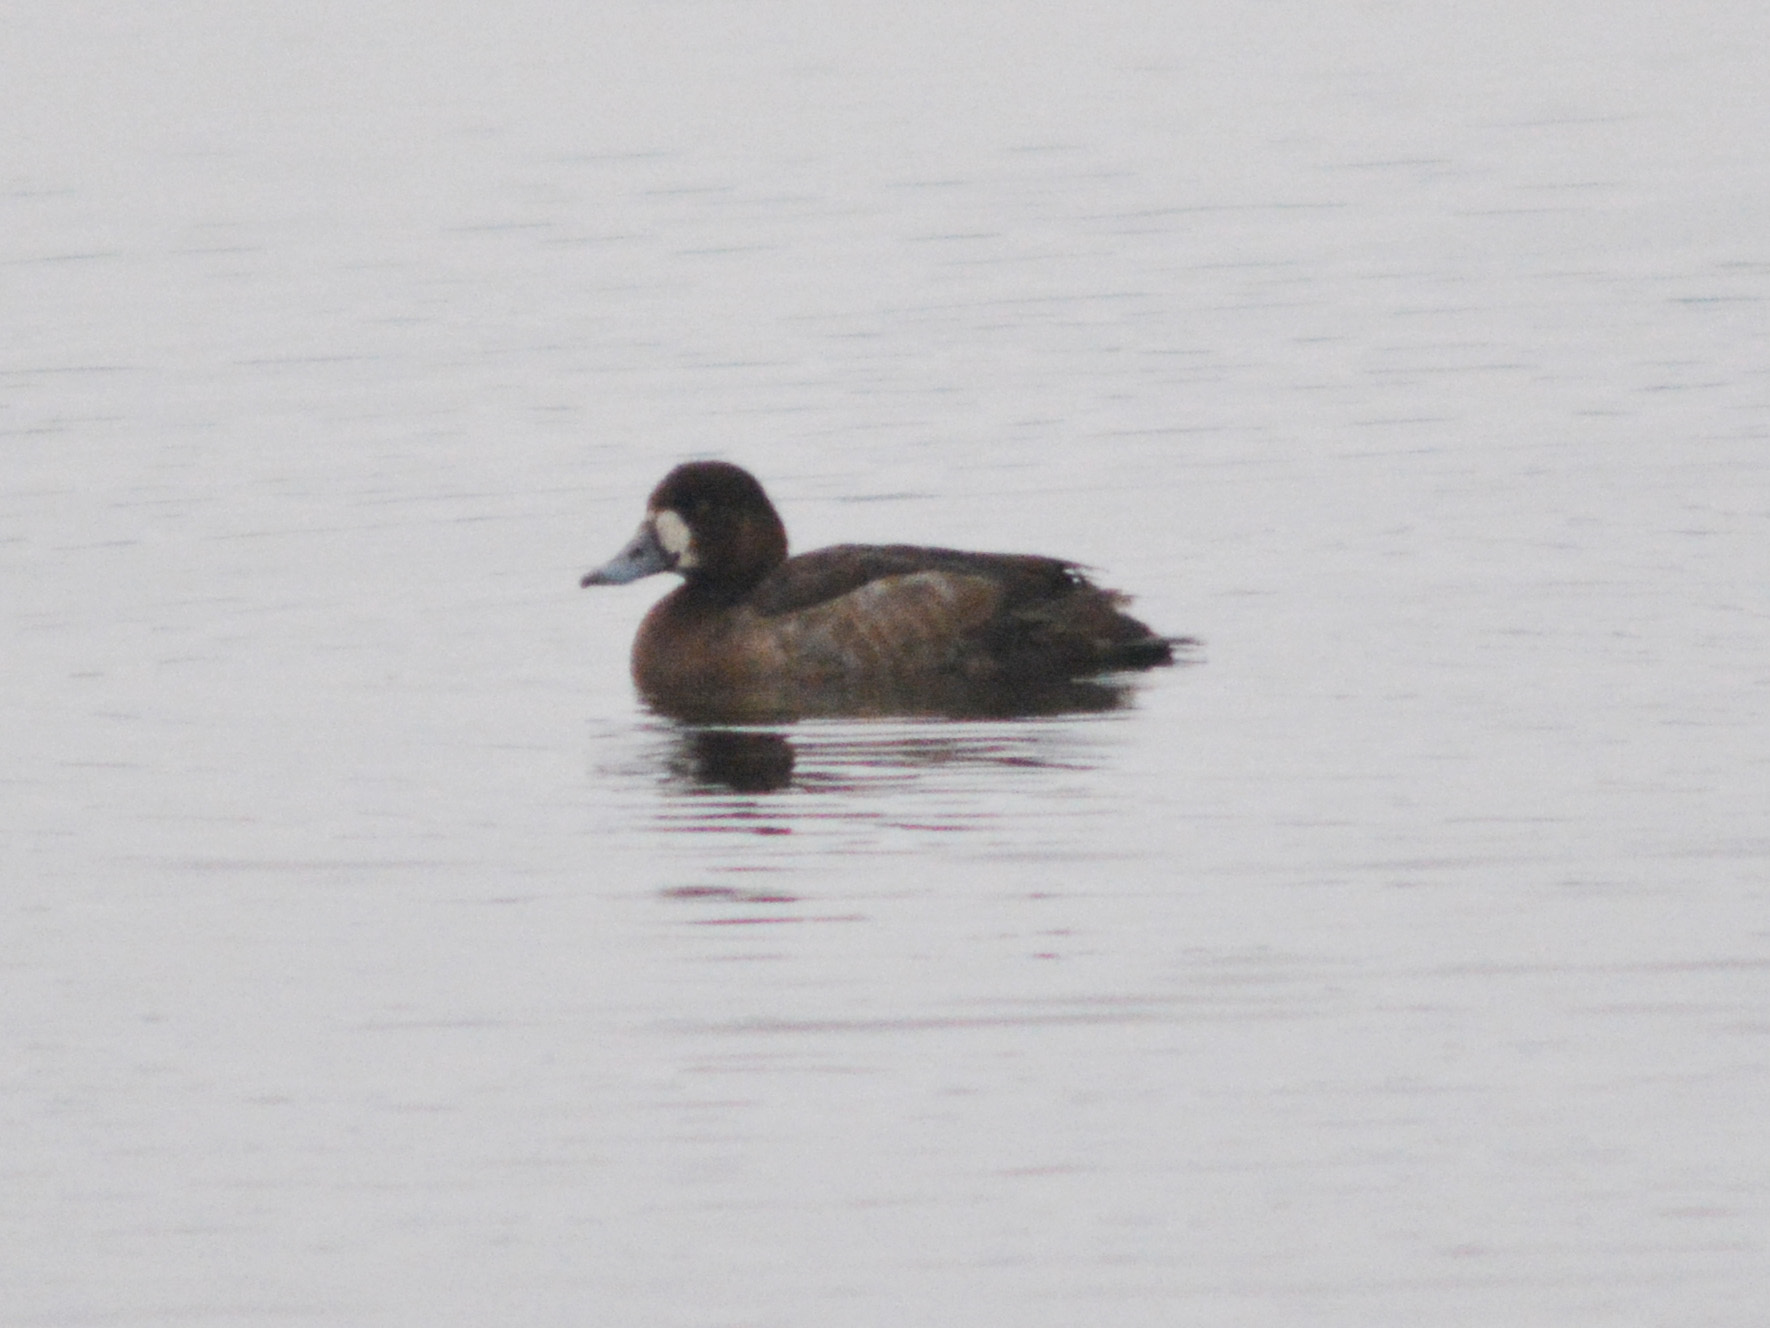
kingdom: Animalia
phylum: Chordata
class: Aves
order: Anseriformes
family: Anatidae
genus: Aythya
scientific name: Aythya marila
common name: Greater scaup
